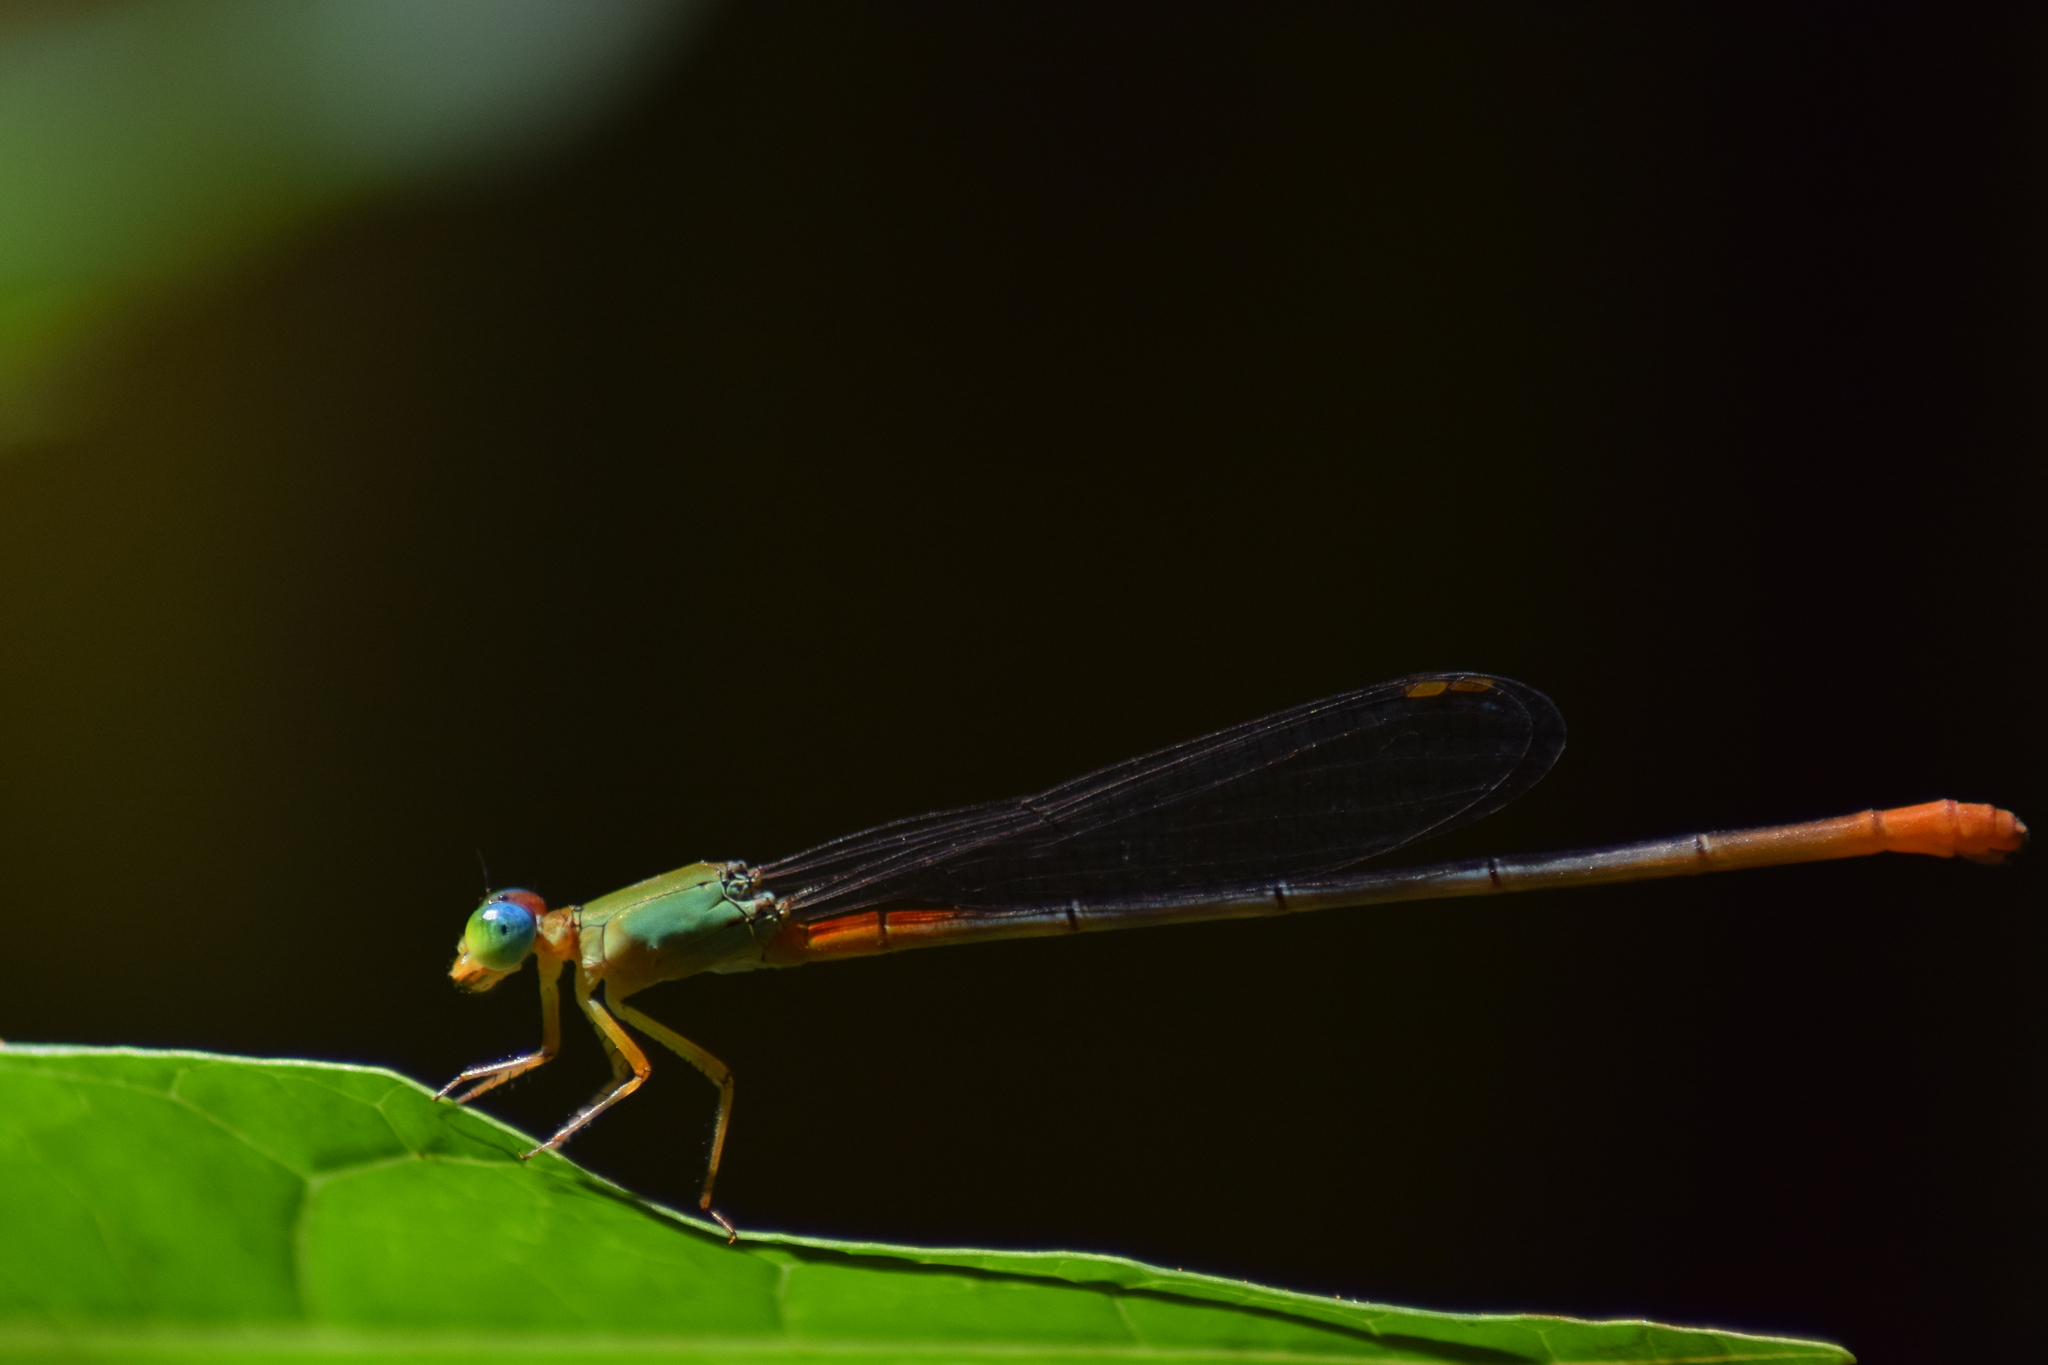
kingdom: Animalia
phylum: Arthropoda
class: Insecta
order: Odonata
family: Coenagrionidae
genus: Ceriagrion
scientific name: Ceriagrion cerinorubellum
